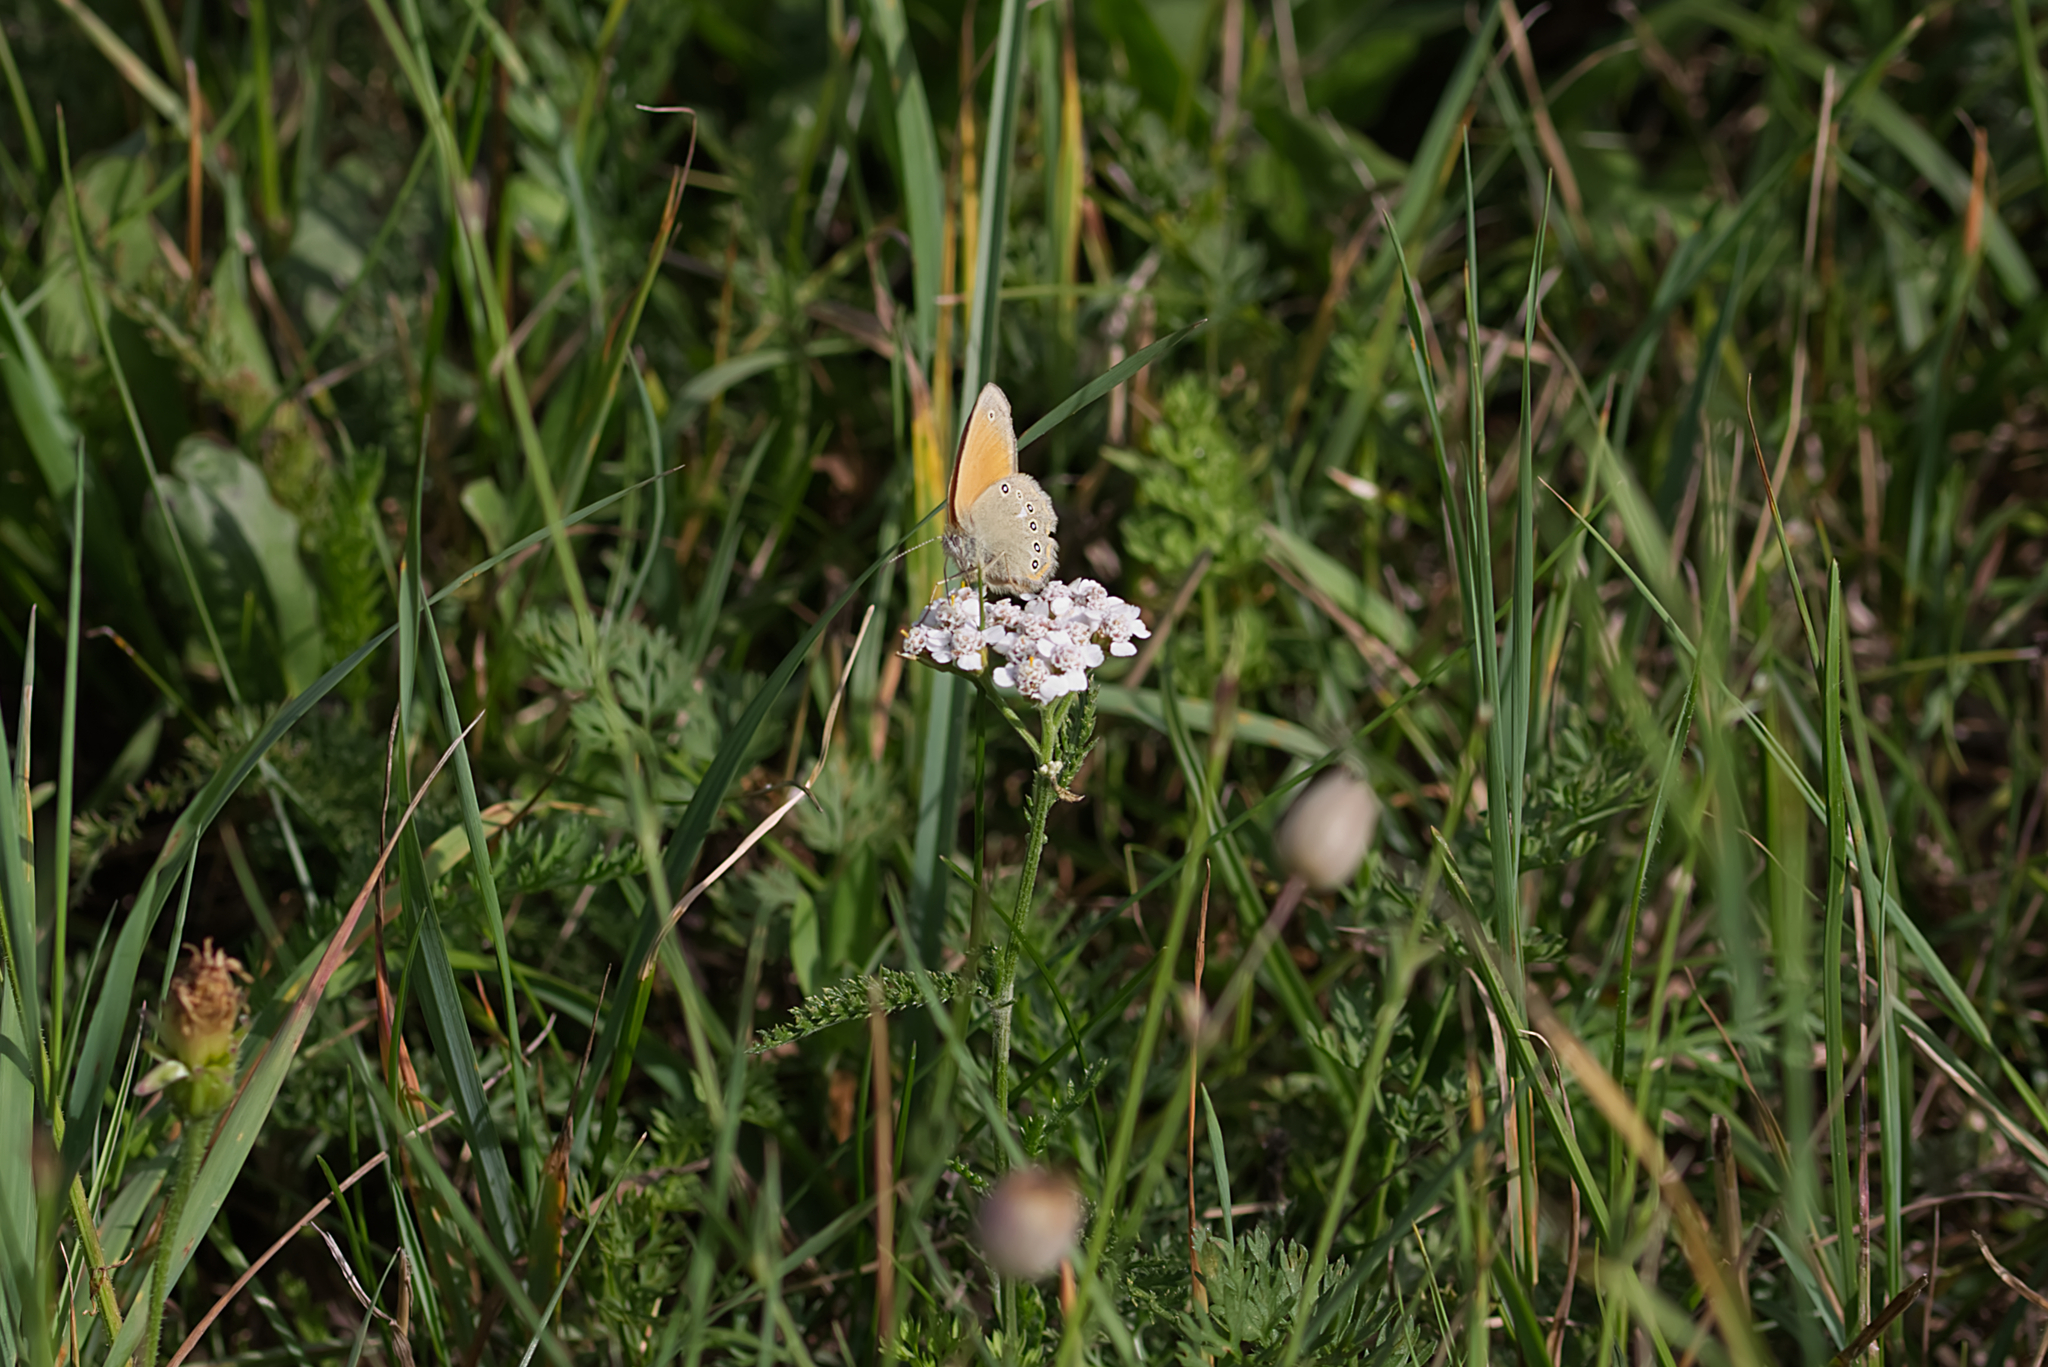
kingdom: Animalia
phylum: Arthropoda
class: Insecta
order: Lepidoptera
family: Nymphalidae
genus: Coenonympha
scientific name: Coenonympha iphis
